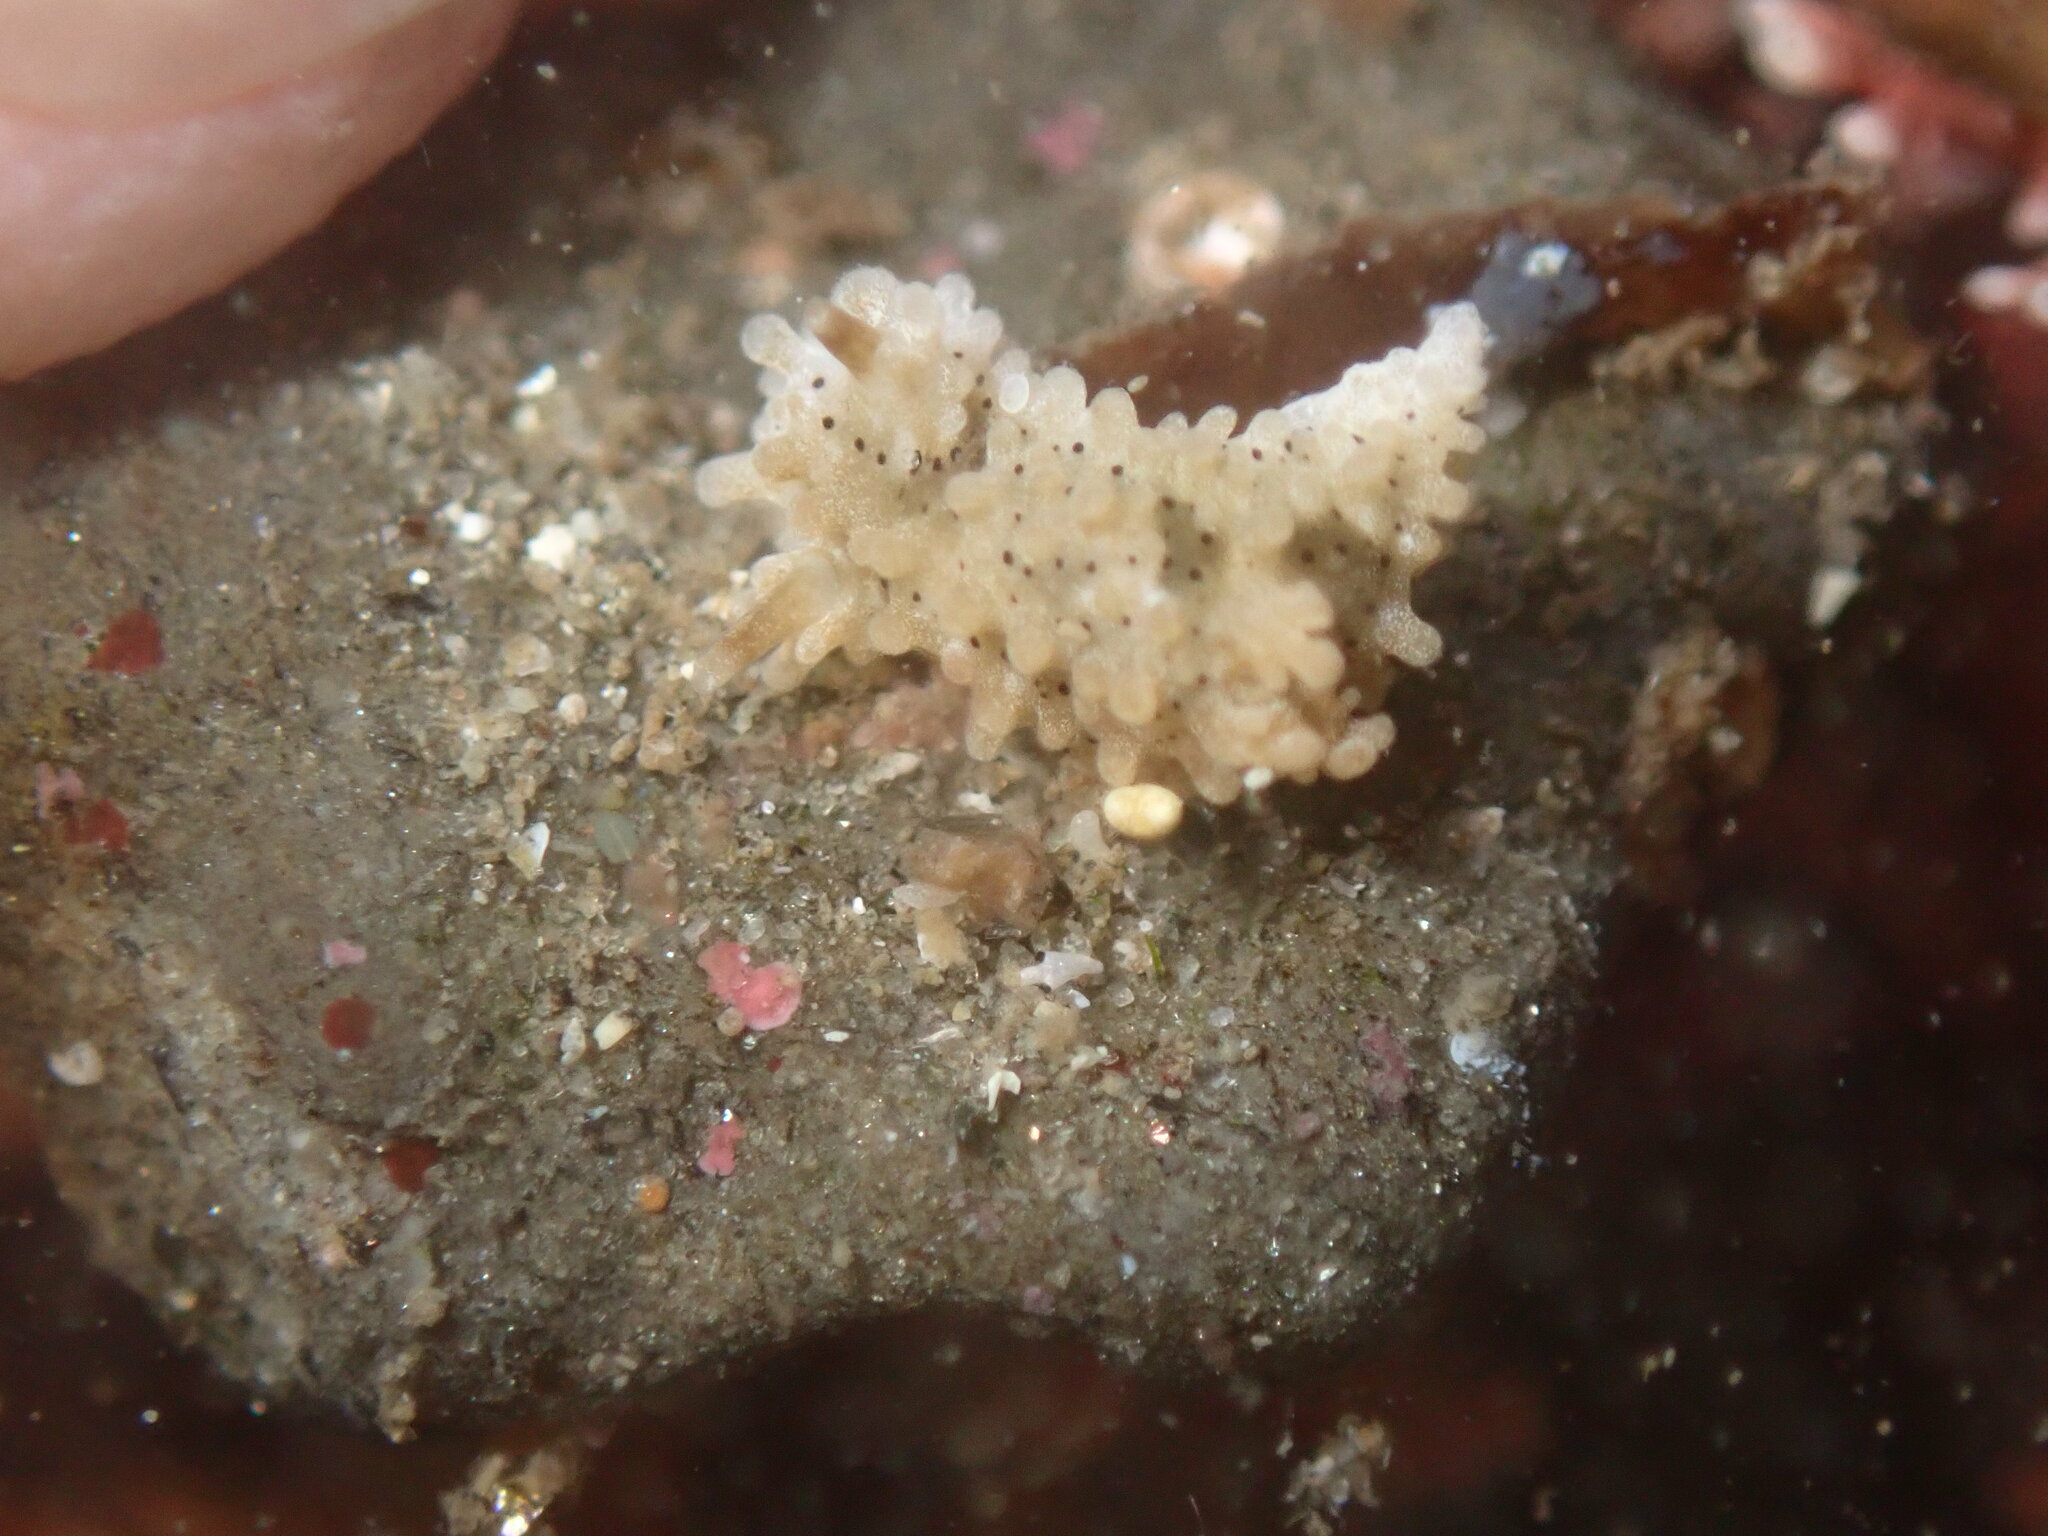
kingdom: Animalia
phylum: Mollusca
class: Gastropoda
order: Nudibranchia
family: Aegiridae
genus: Aegires
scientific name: Aegires albopunctatus
